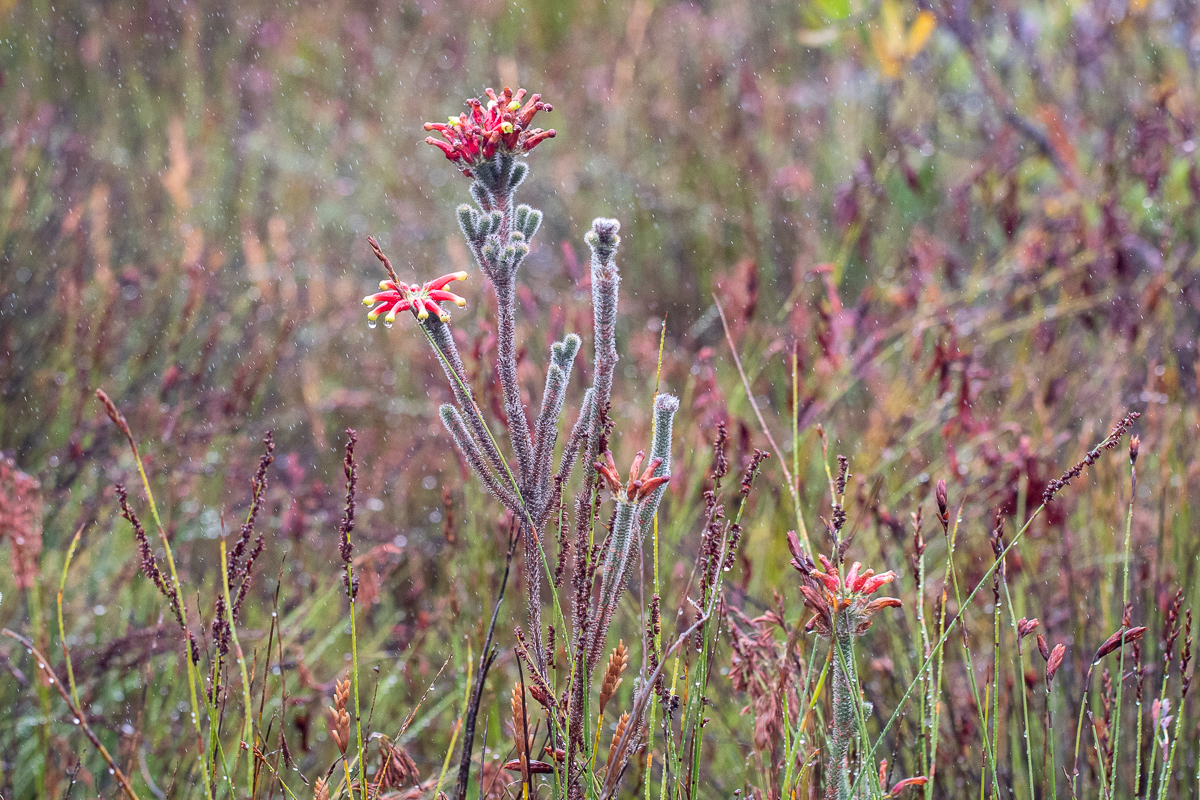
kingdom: Plantae
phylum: Tracheophyta
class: Magnoliopsida
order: Ericales
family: Ericaceae
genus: Erica
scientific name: Erica massonii
